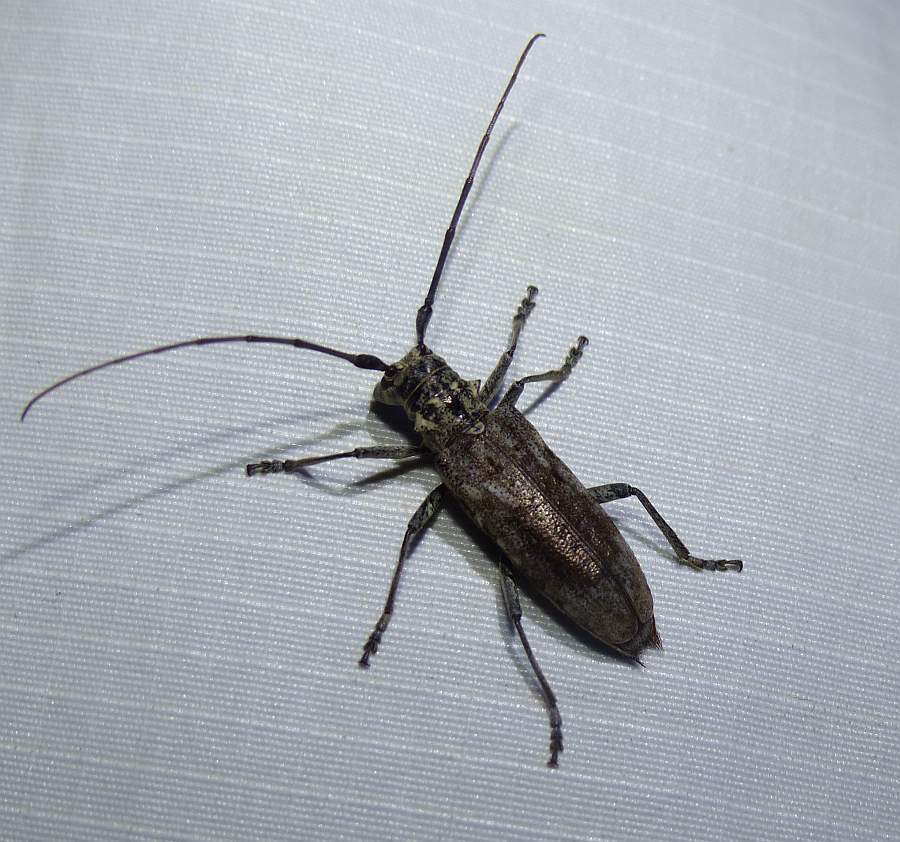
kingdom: Animalia
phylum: Arthropoda
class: Insecta
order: Coleoptera
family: Cerambycidae
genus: Monochamus
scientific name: Monochamus notatus
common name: Northeastern pine sawyer beetle
